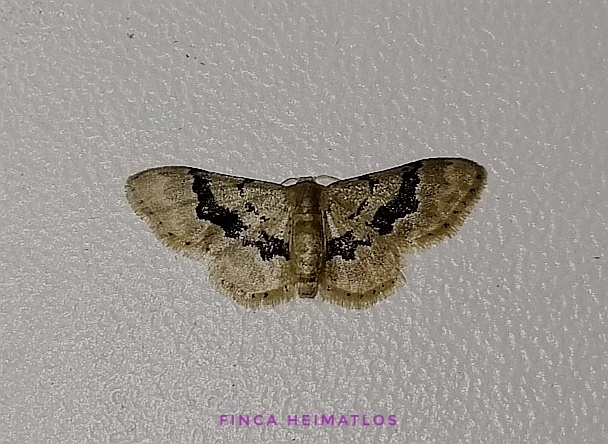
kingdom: Animalia
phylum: Arthropoda
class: Insecta
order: Lepidoptera
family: Geometridae
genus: Idaea
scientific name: Idaea muscifasciata
